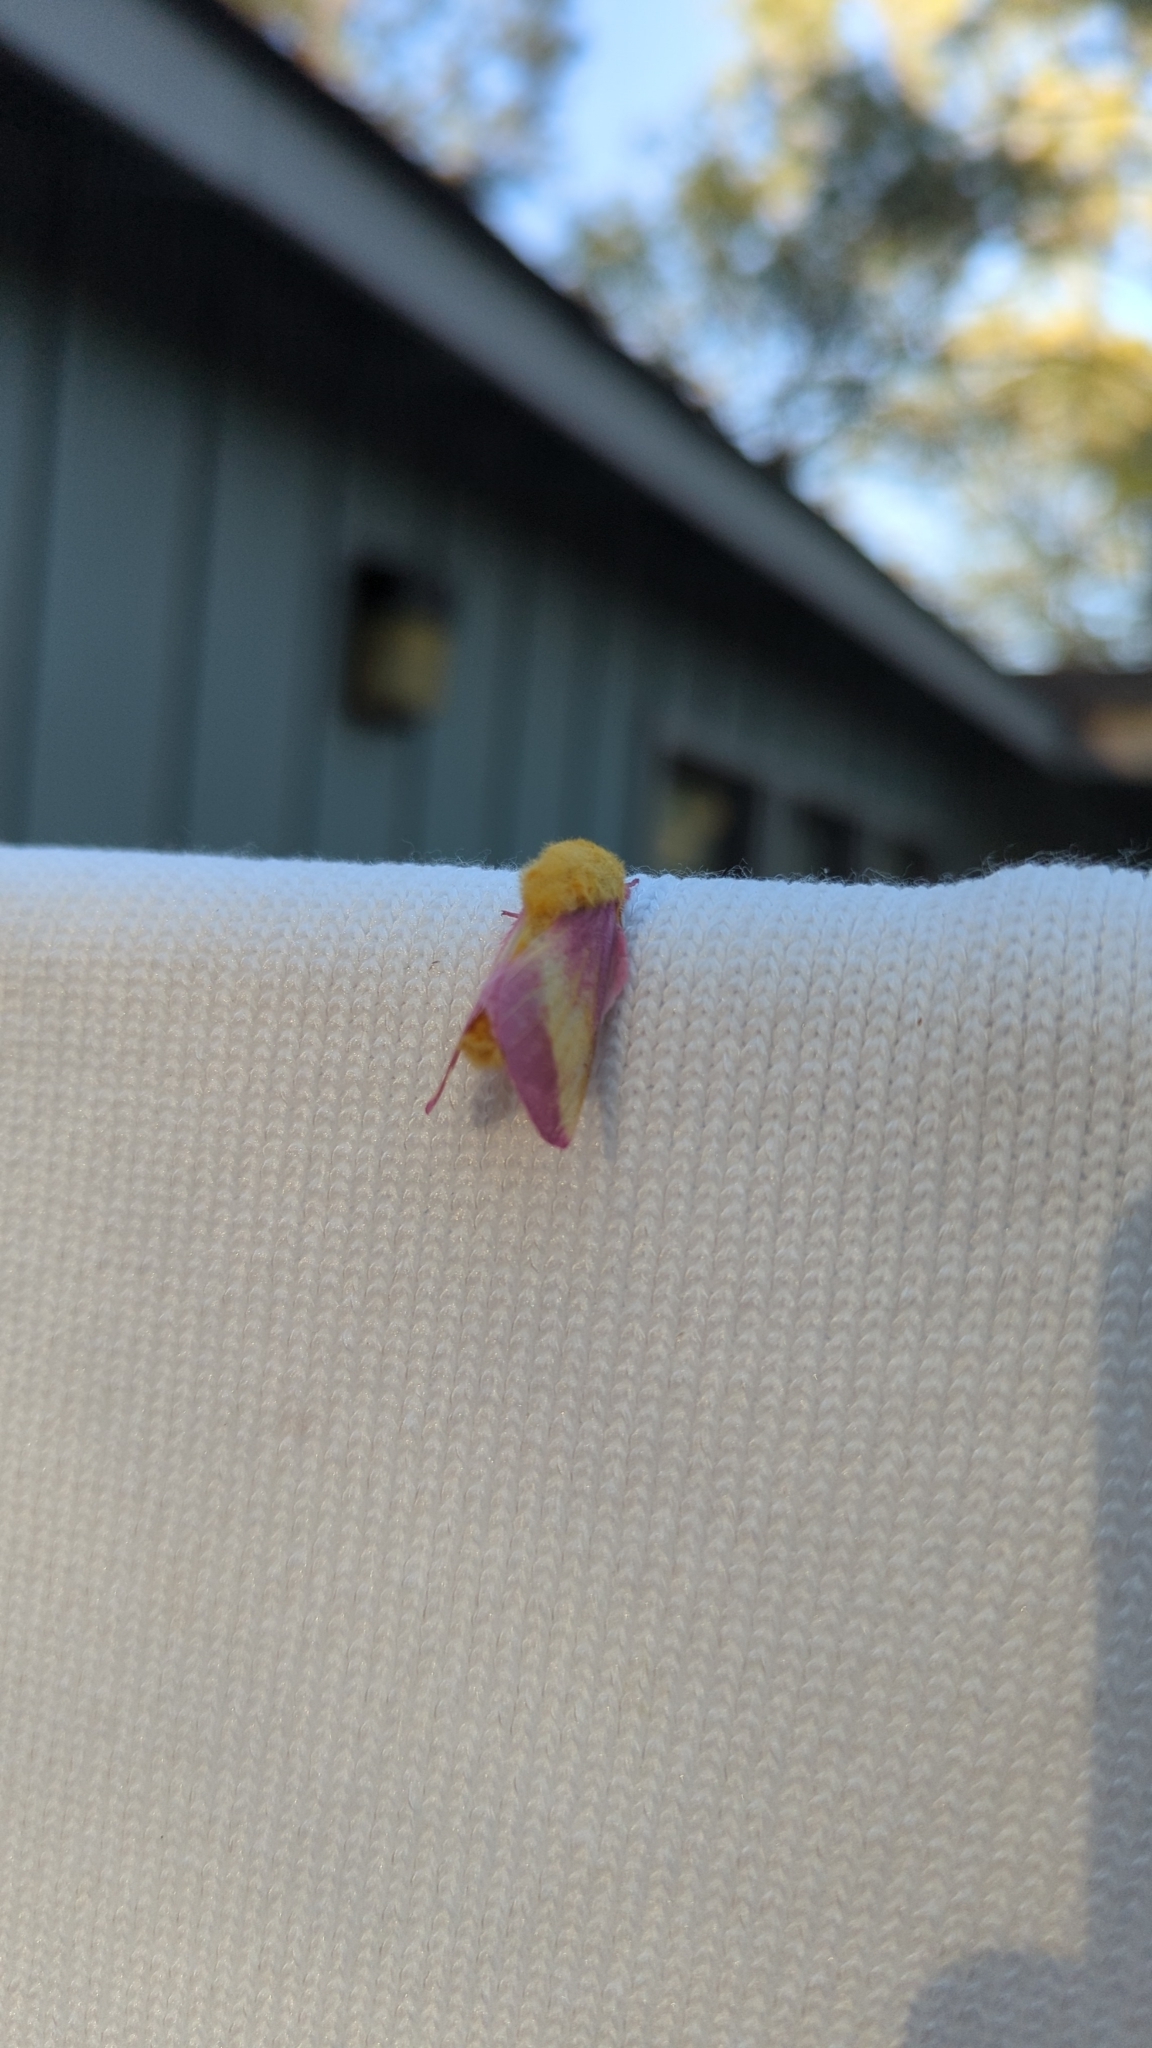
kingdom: Animalia
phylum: Arthropoda
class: Insecta
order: Lepidoptera
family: Saturniidae
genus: Dryocampa
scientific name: Dryocampa rubicunda
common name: Rosy maple moth
